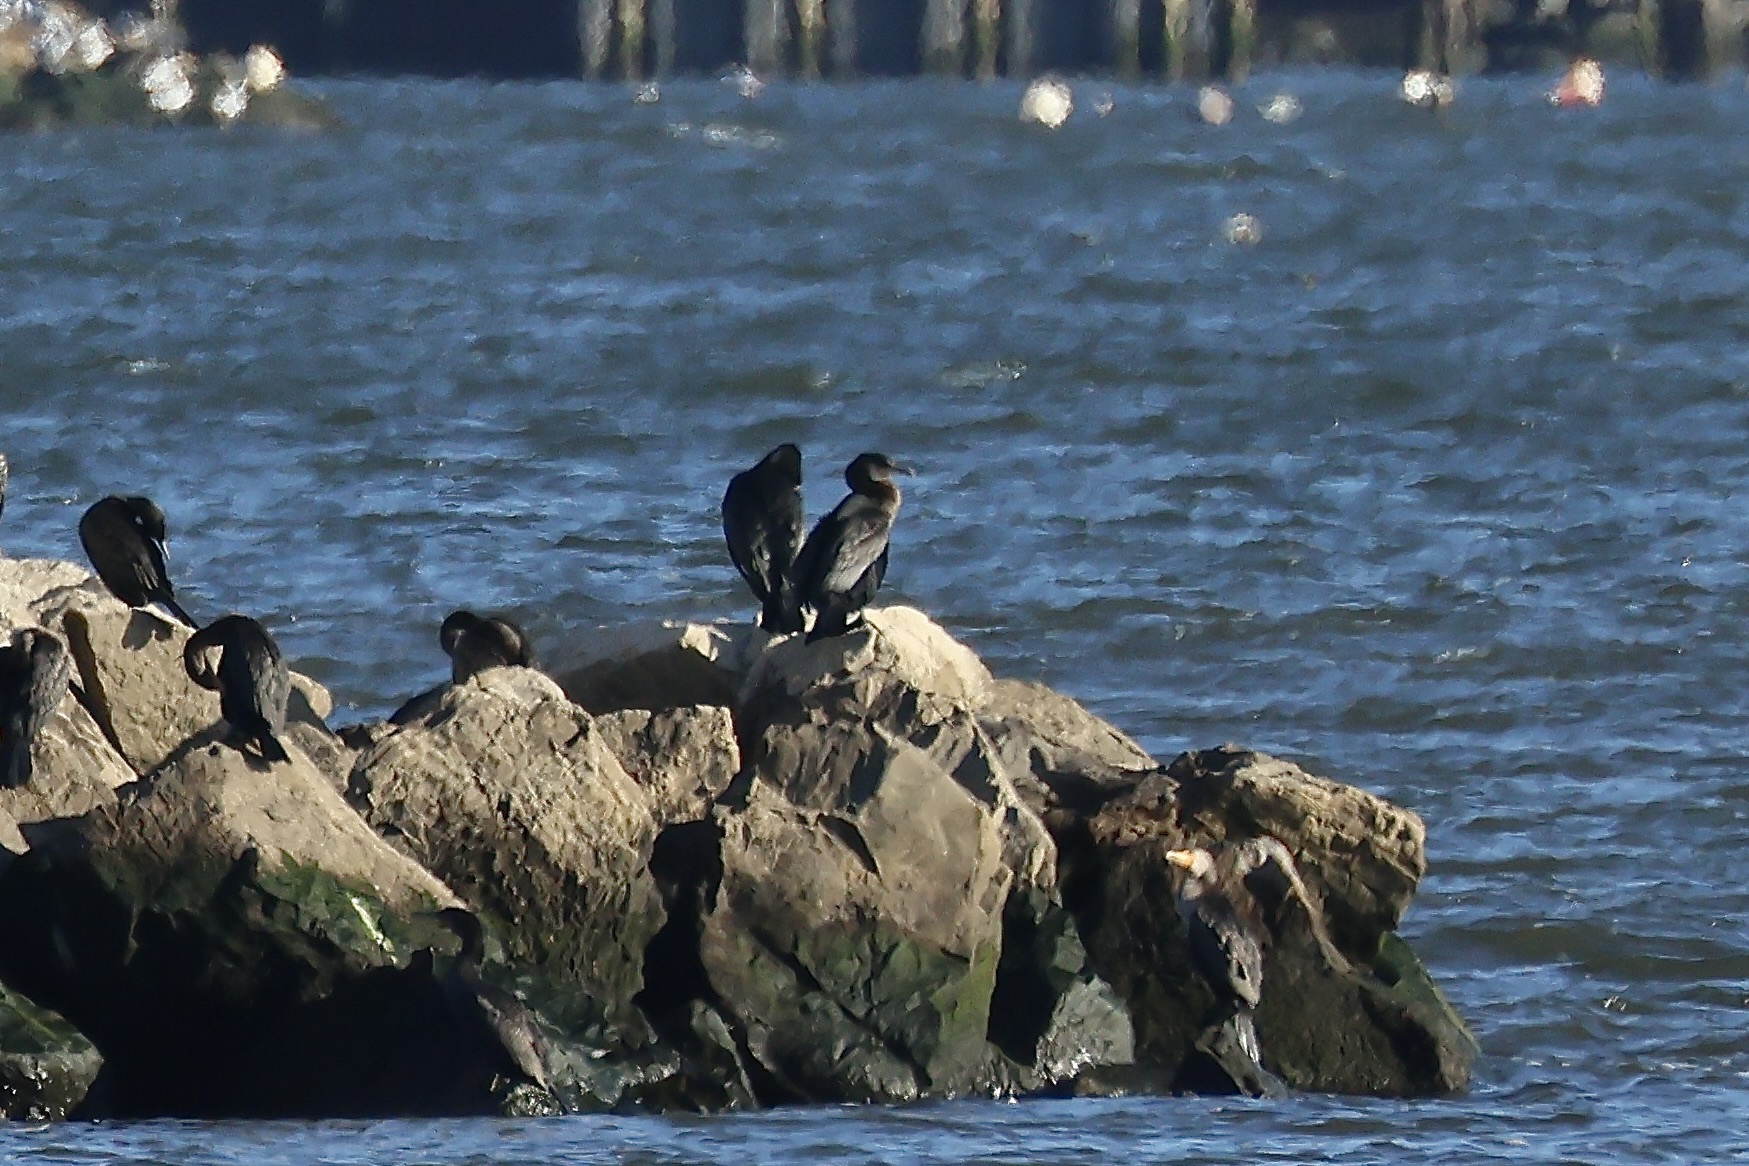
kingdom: Animalia
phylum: Chordata
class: Aves
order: Suliformes
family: Phalacrocoracidae
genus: Phalacrocorax
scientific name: Phalacrocorax carbo
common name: Great cormorant
